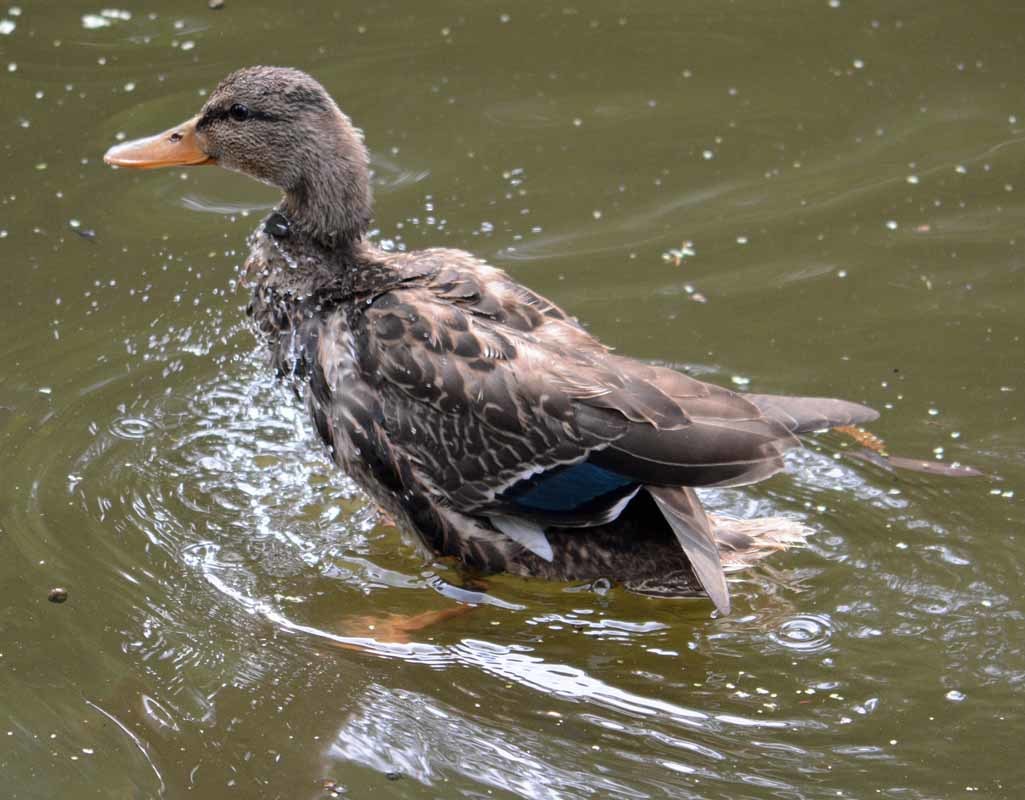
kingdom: Animalia
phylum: Chordata
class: Aves
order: Anseriformes
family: Anatidae
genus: Anas
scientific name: Anas diazi
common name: Mexican duck
